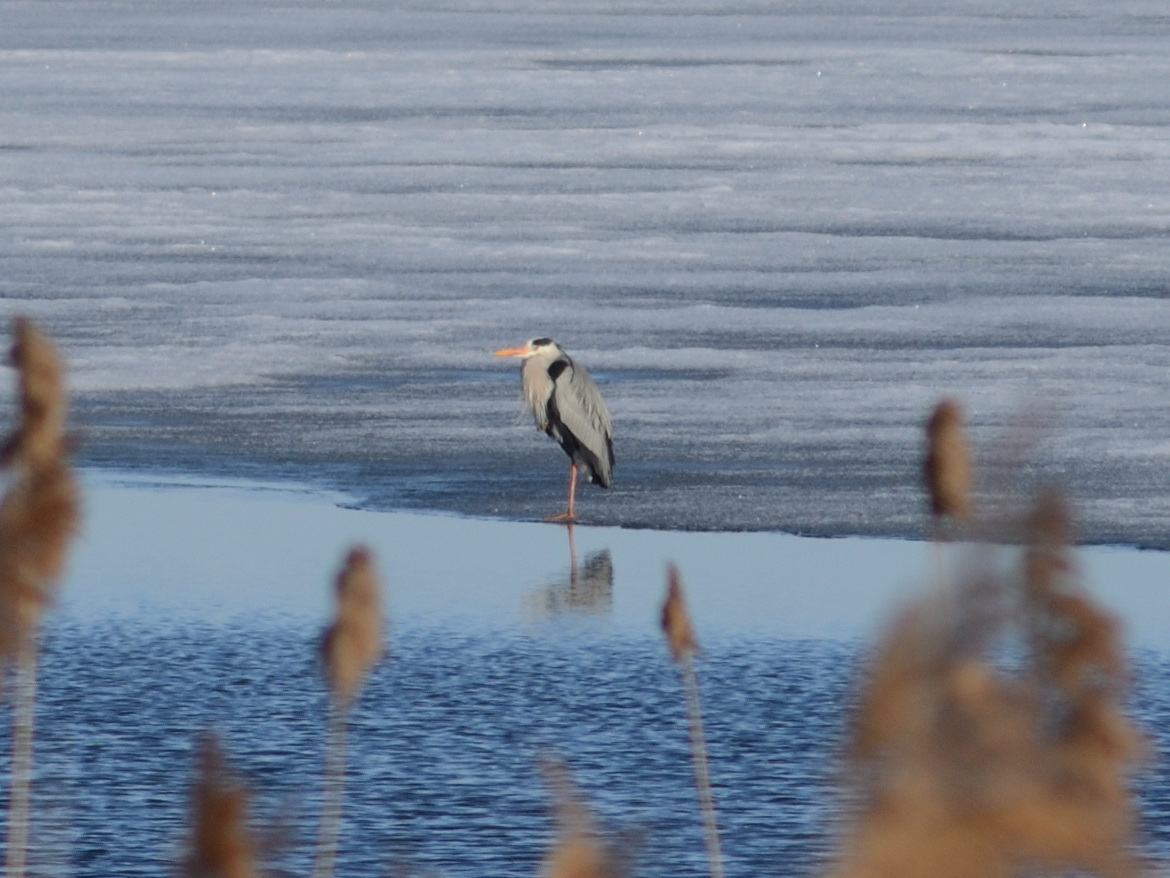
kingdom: Animalia
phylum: Chordata
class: Aves
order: Pelecaniformes
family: Ardeidae
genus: Ardea
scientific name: Ardea cinerea
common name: Grey heron
